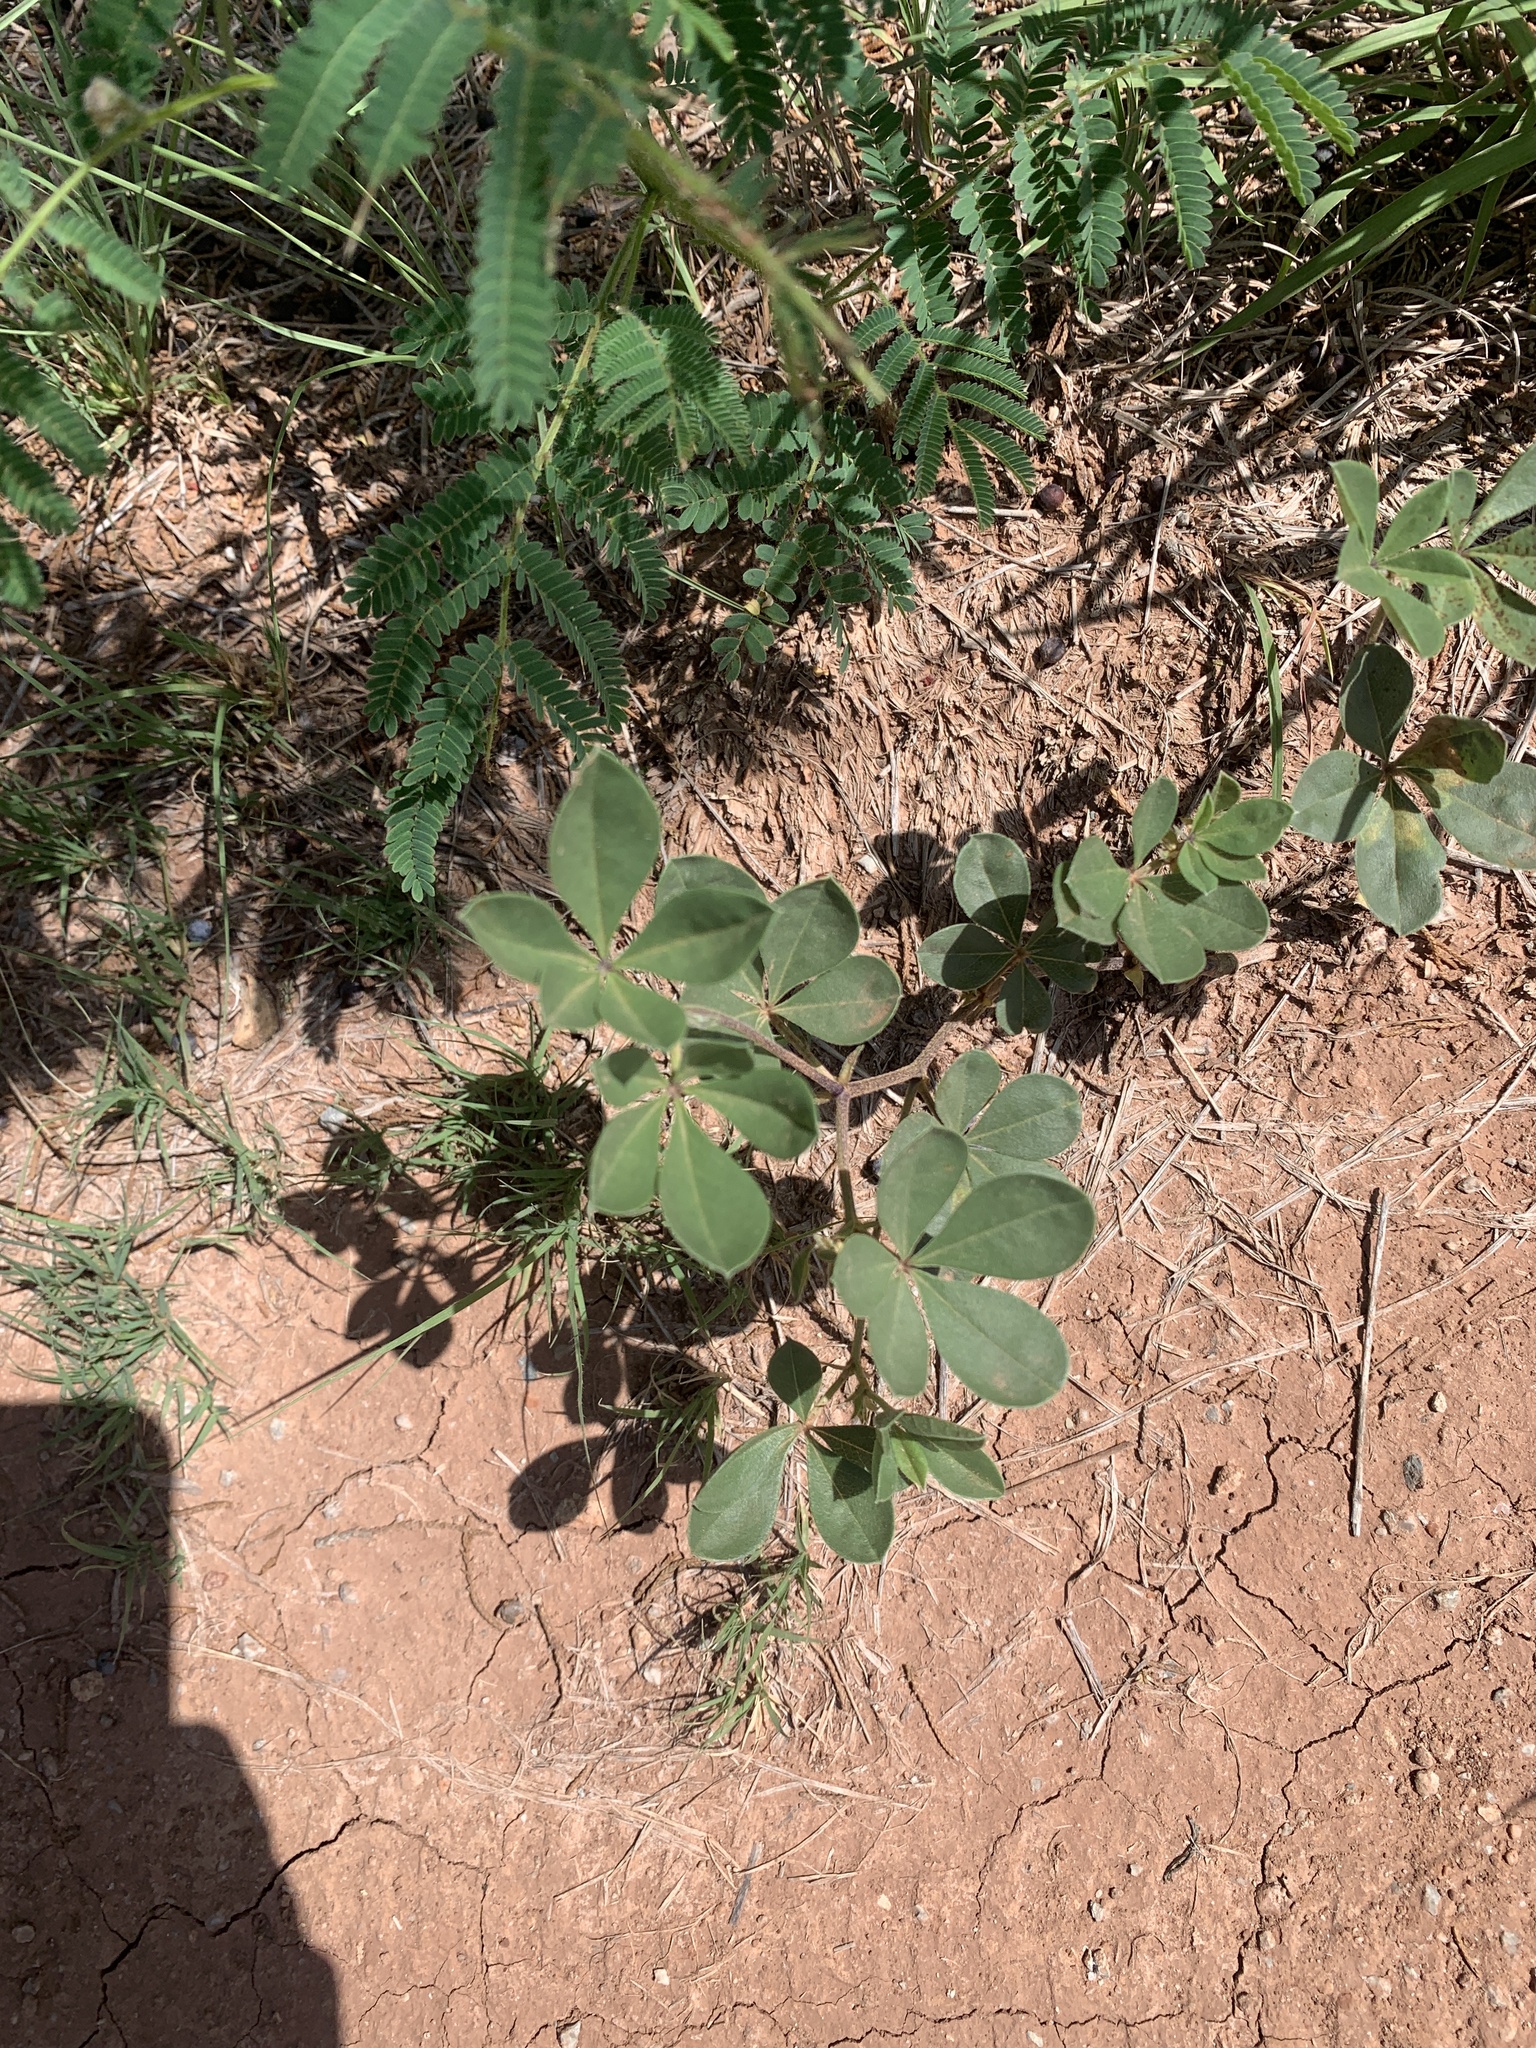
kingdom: Plantae
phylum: Tracheophyta
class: Magnoliopsida
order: Fabales
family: Fabaceae
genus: Pediomelum
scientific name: Pediomelum cuspidatum
